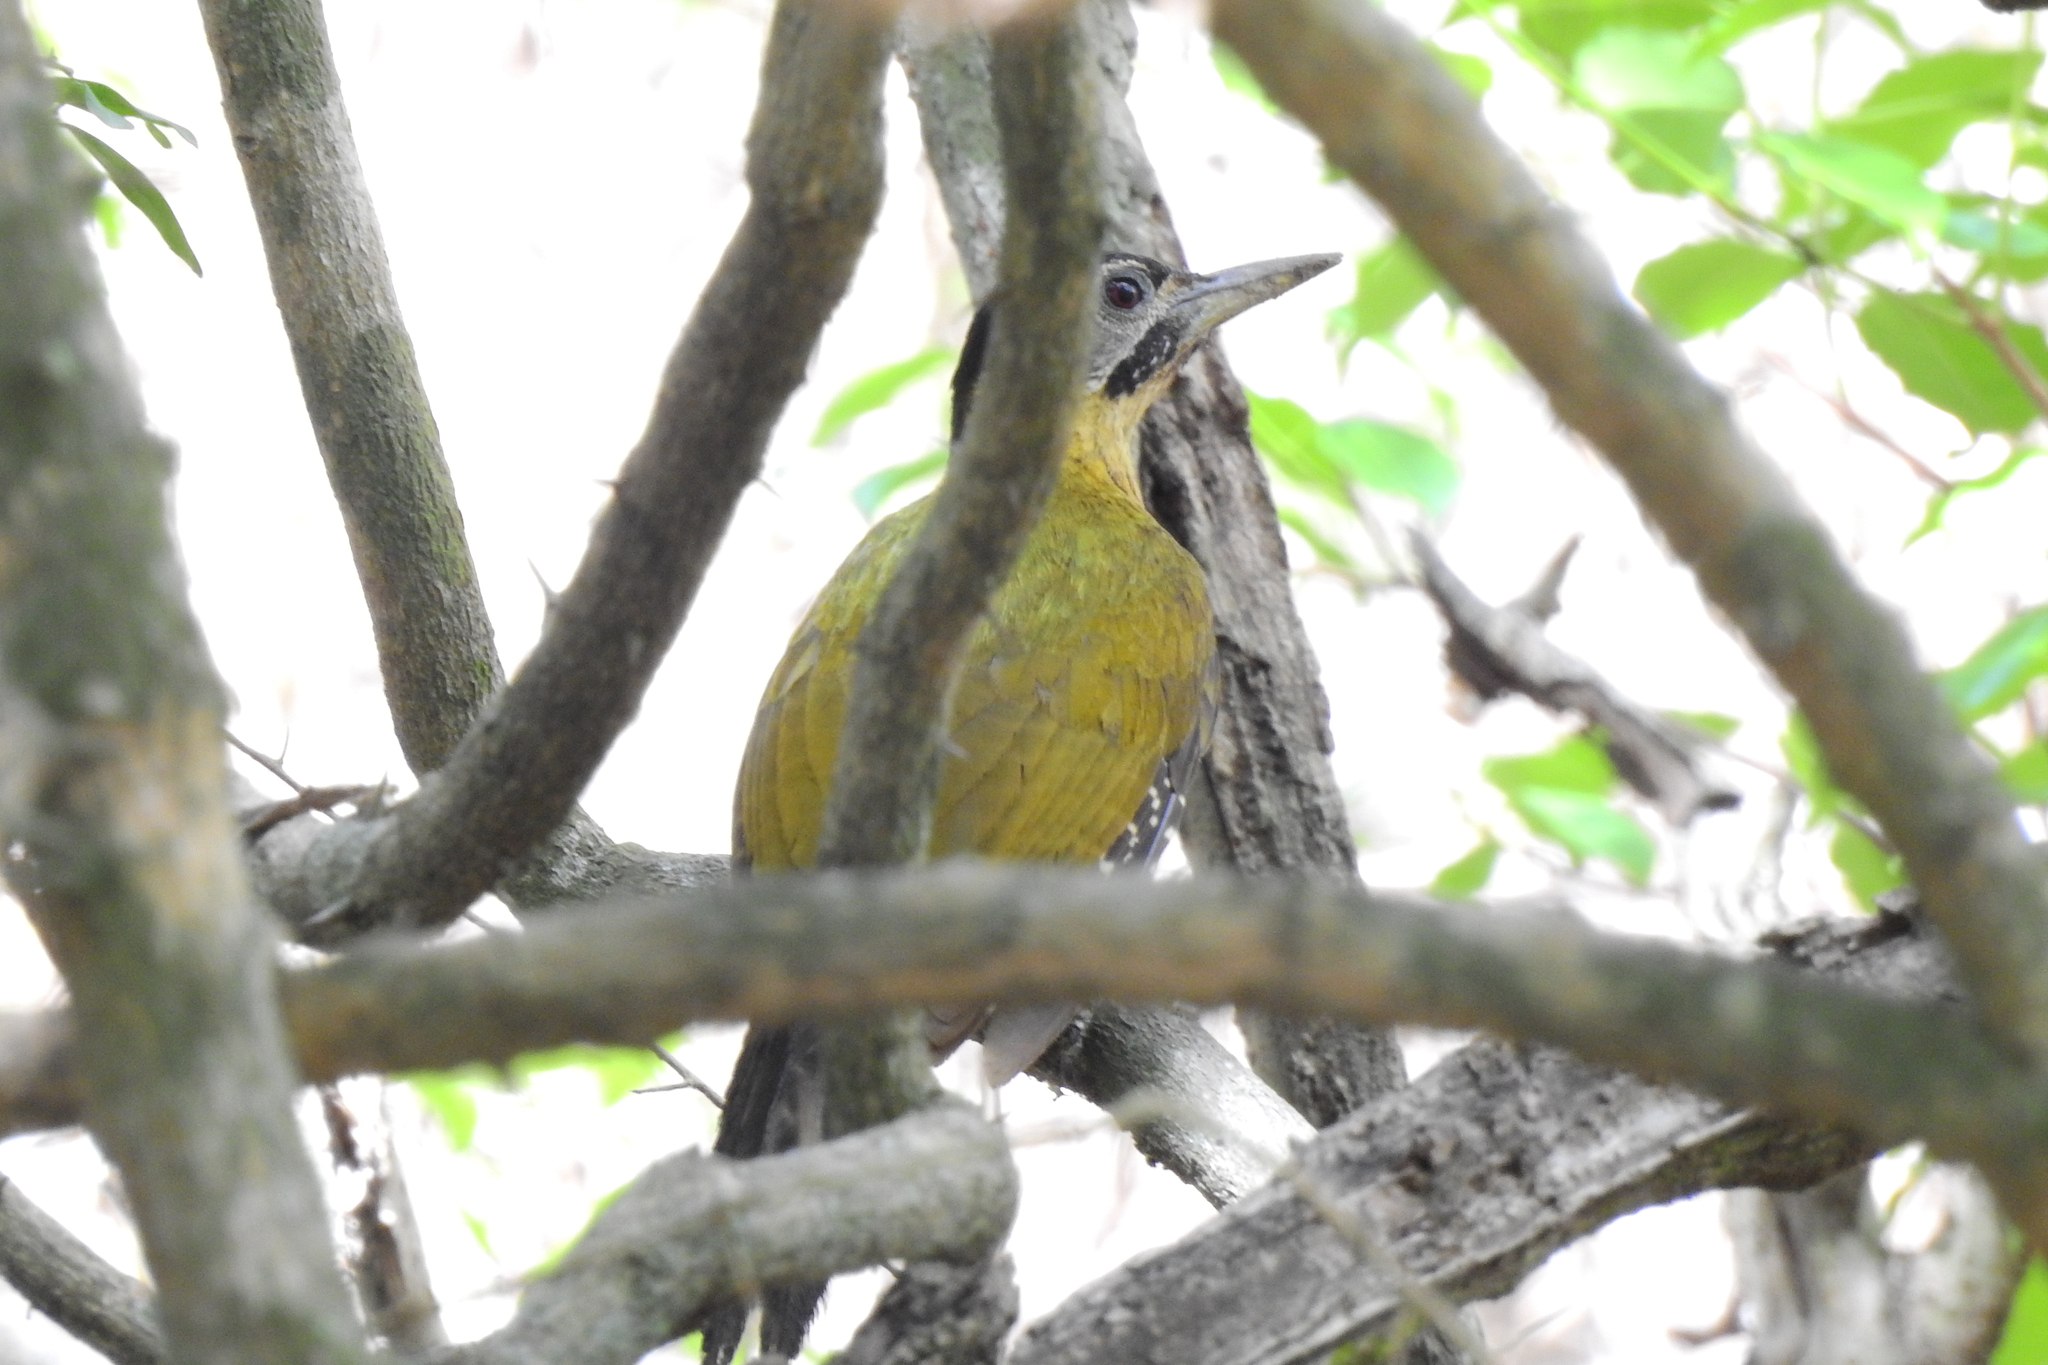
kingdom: Animalia
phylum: Chordata
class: Aves
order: Piciformes
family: Picidae
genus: Picus
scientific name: Picus vittatus
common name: Laced woodpecker
